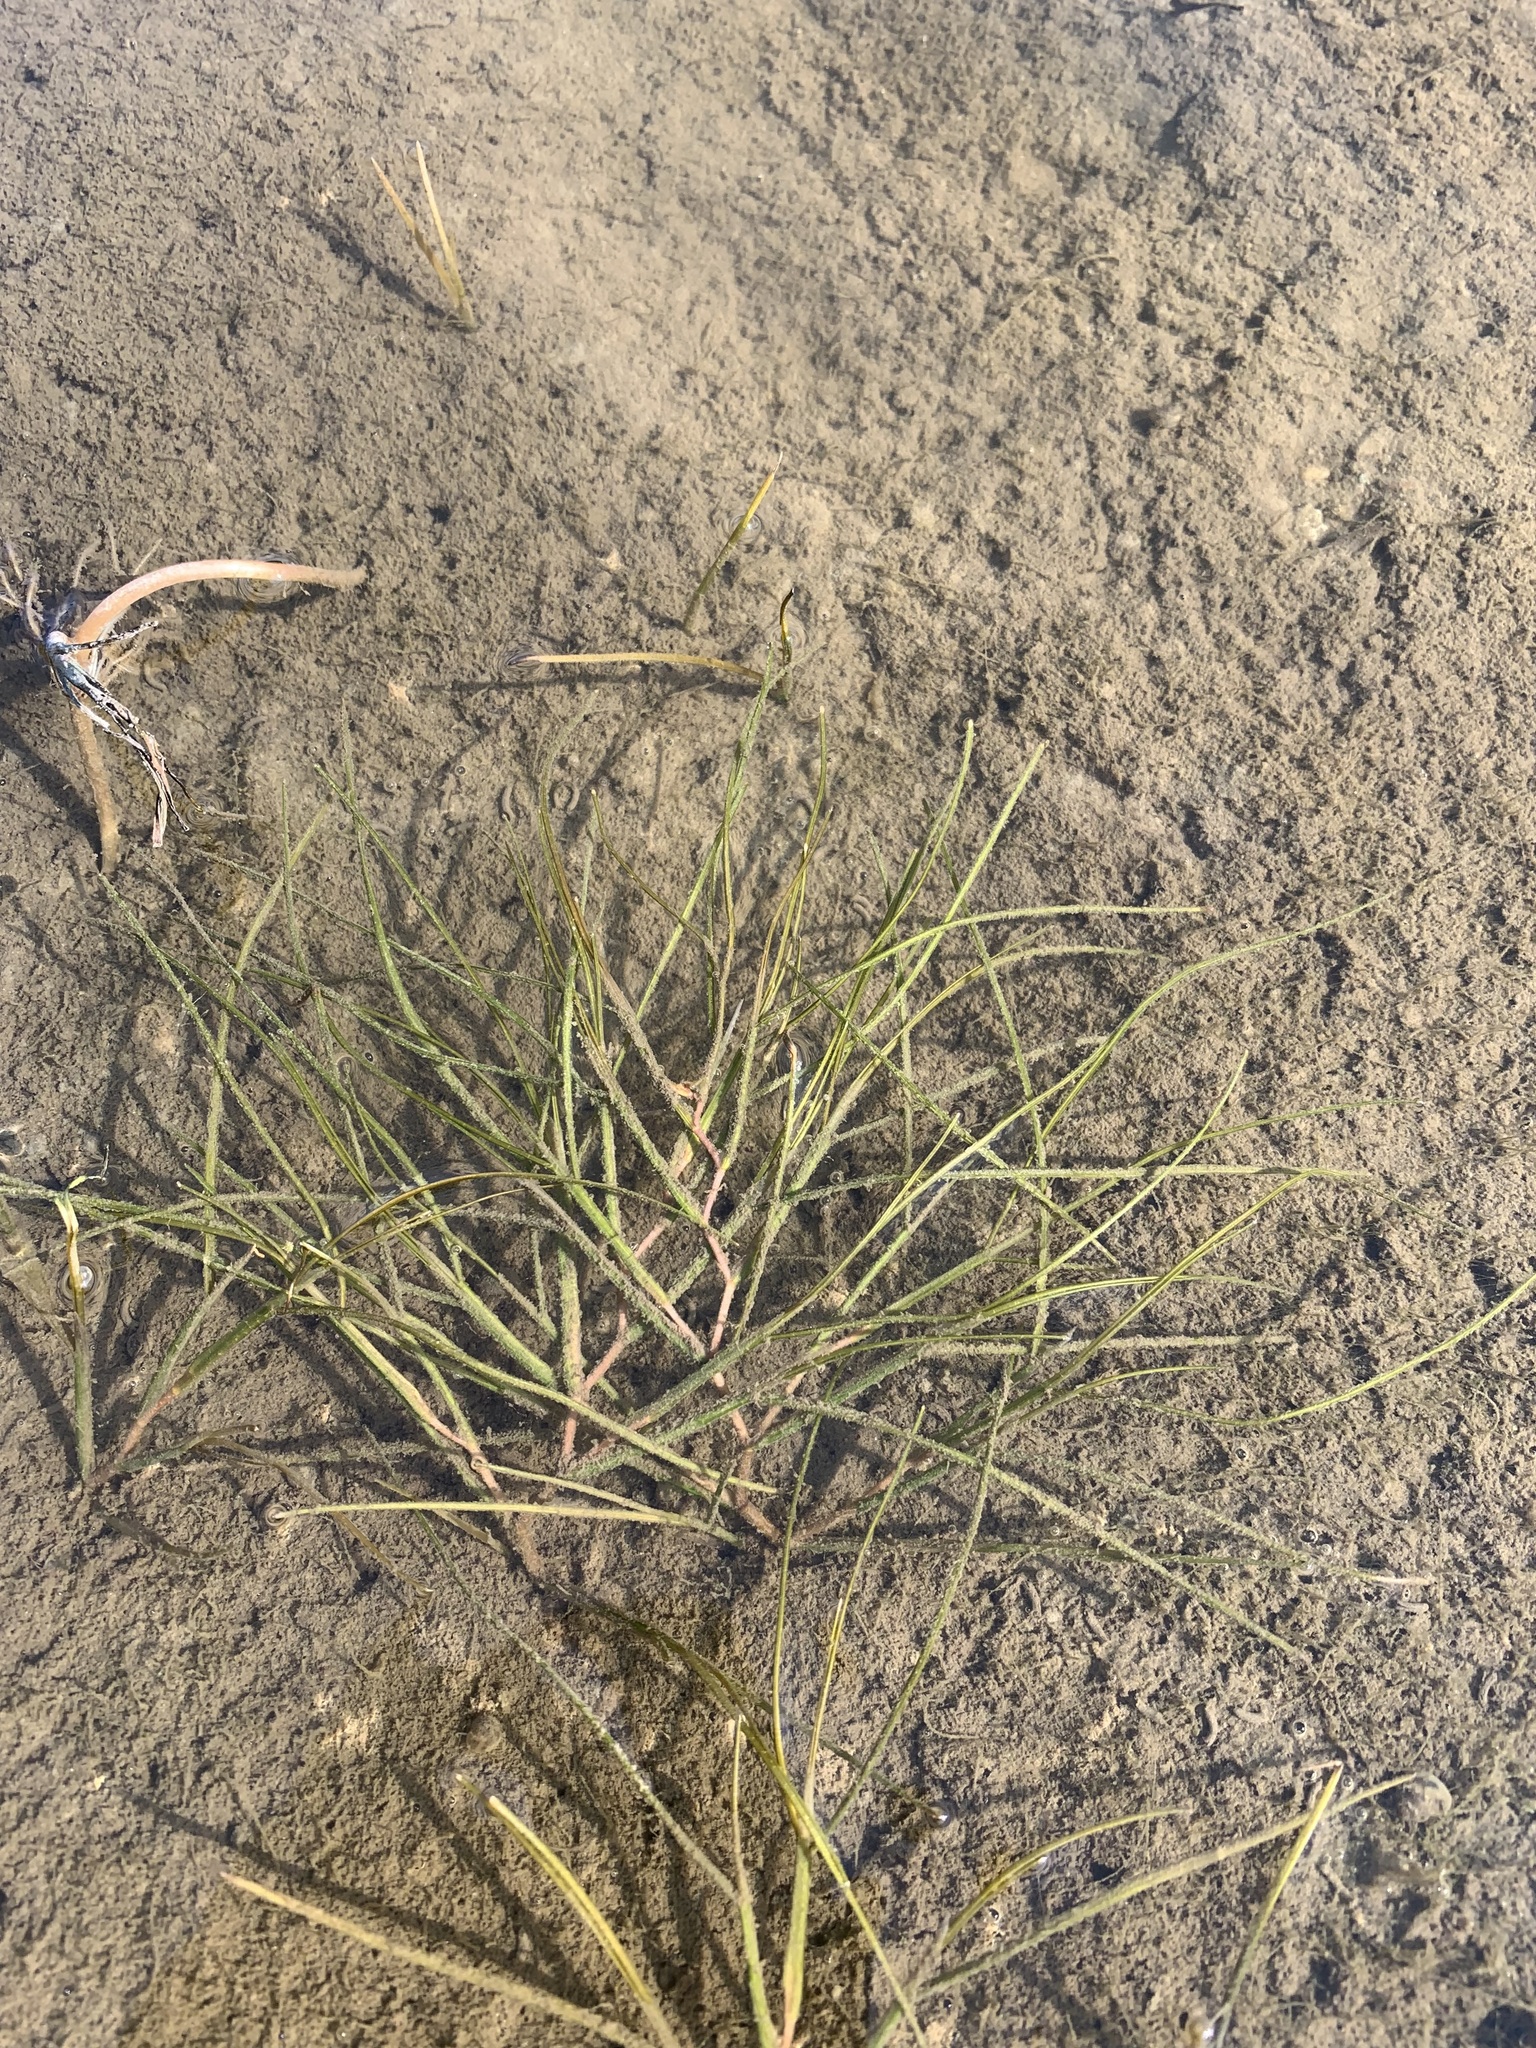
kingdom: Plantae
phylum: Tracheophyta
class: Liliopsida
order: Alismatales
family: Potamogetonaceae
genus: Stuckenia
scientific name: Stuckenia pectinata
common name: Sago pondweed
